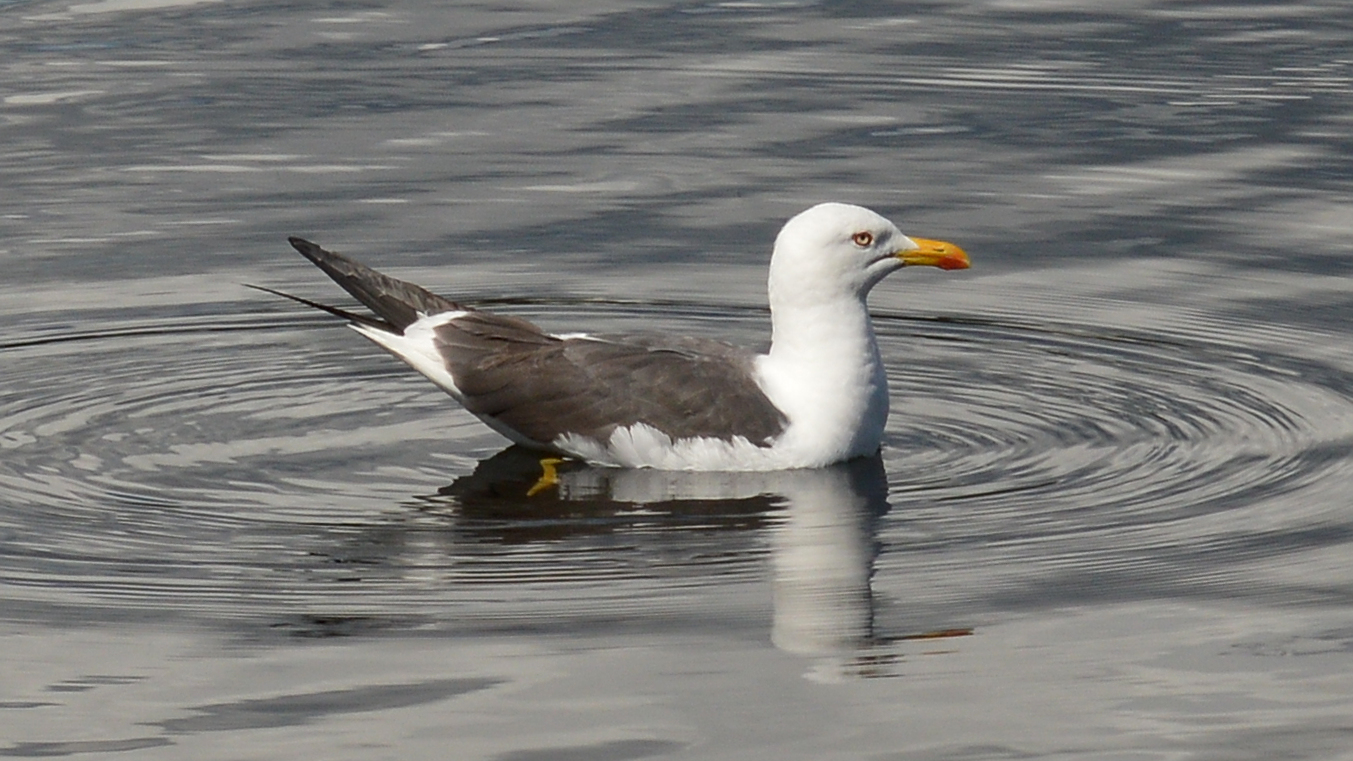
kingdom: Animalia
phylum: Chordata
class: Aves
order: Charadriiformes
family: Laridae
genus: Larus
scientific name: Larus fuscus
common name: Lesser black-backed gull
